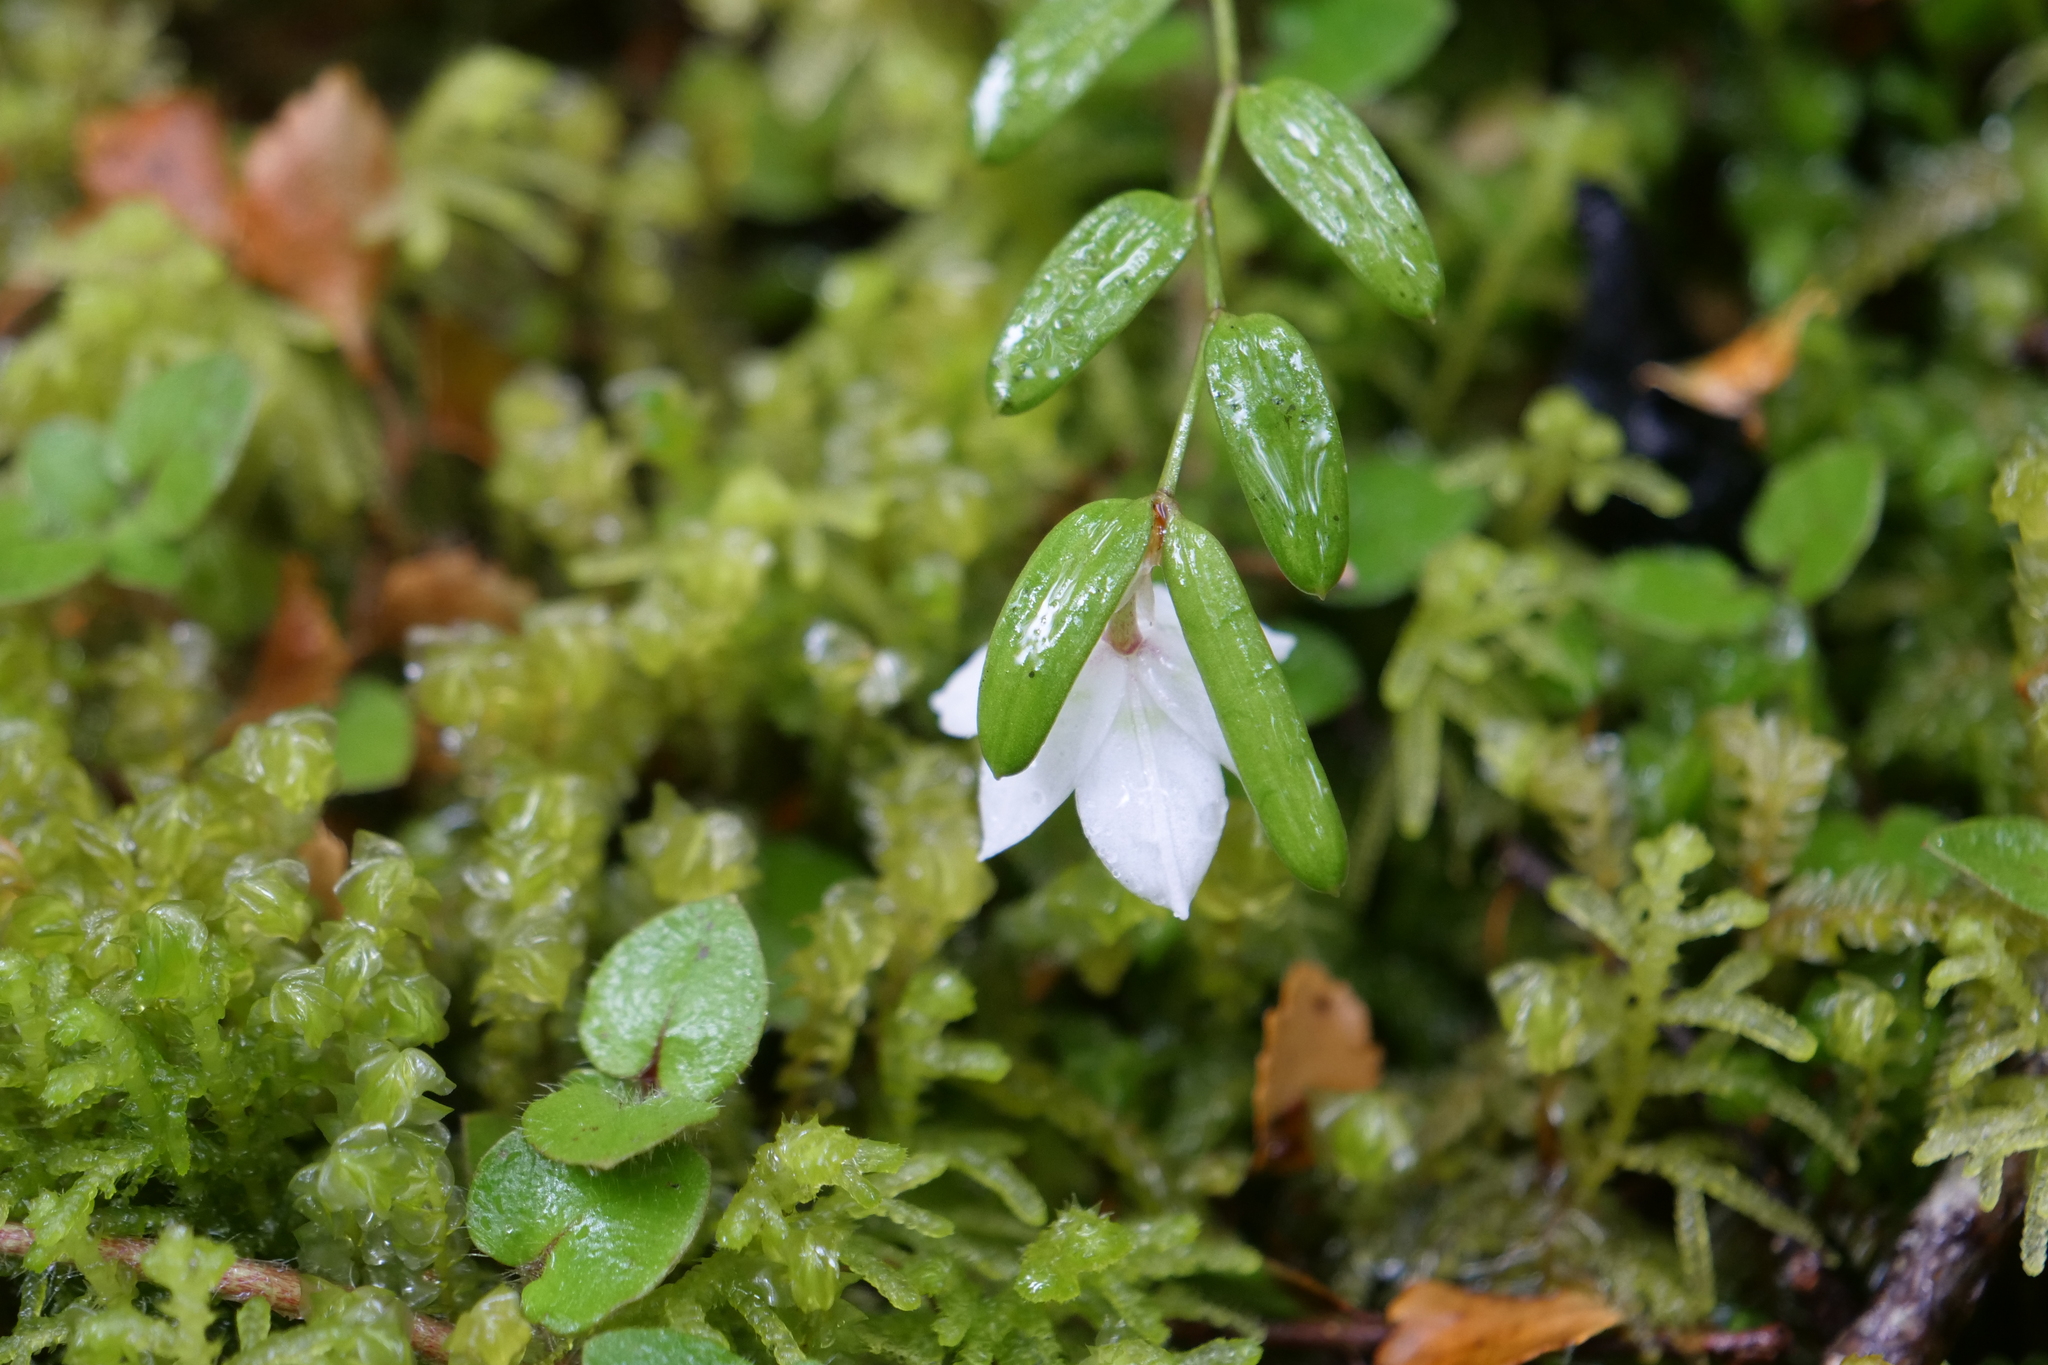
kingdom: Plantae
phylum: Tracheophyta
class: Liliopsida
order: Liliales
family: Alstroemeriaceae
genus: Luzuriaga
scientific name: Luzuriaga parviflora
